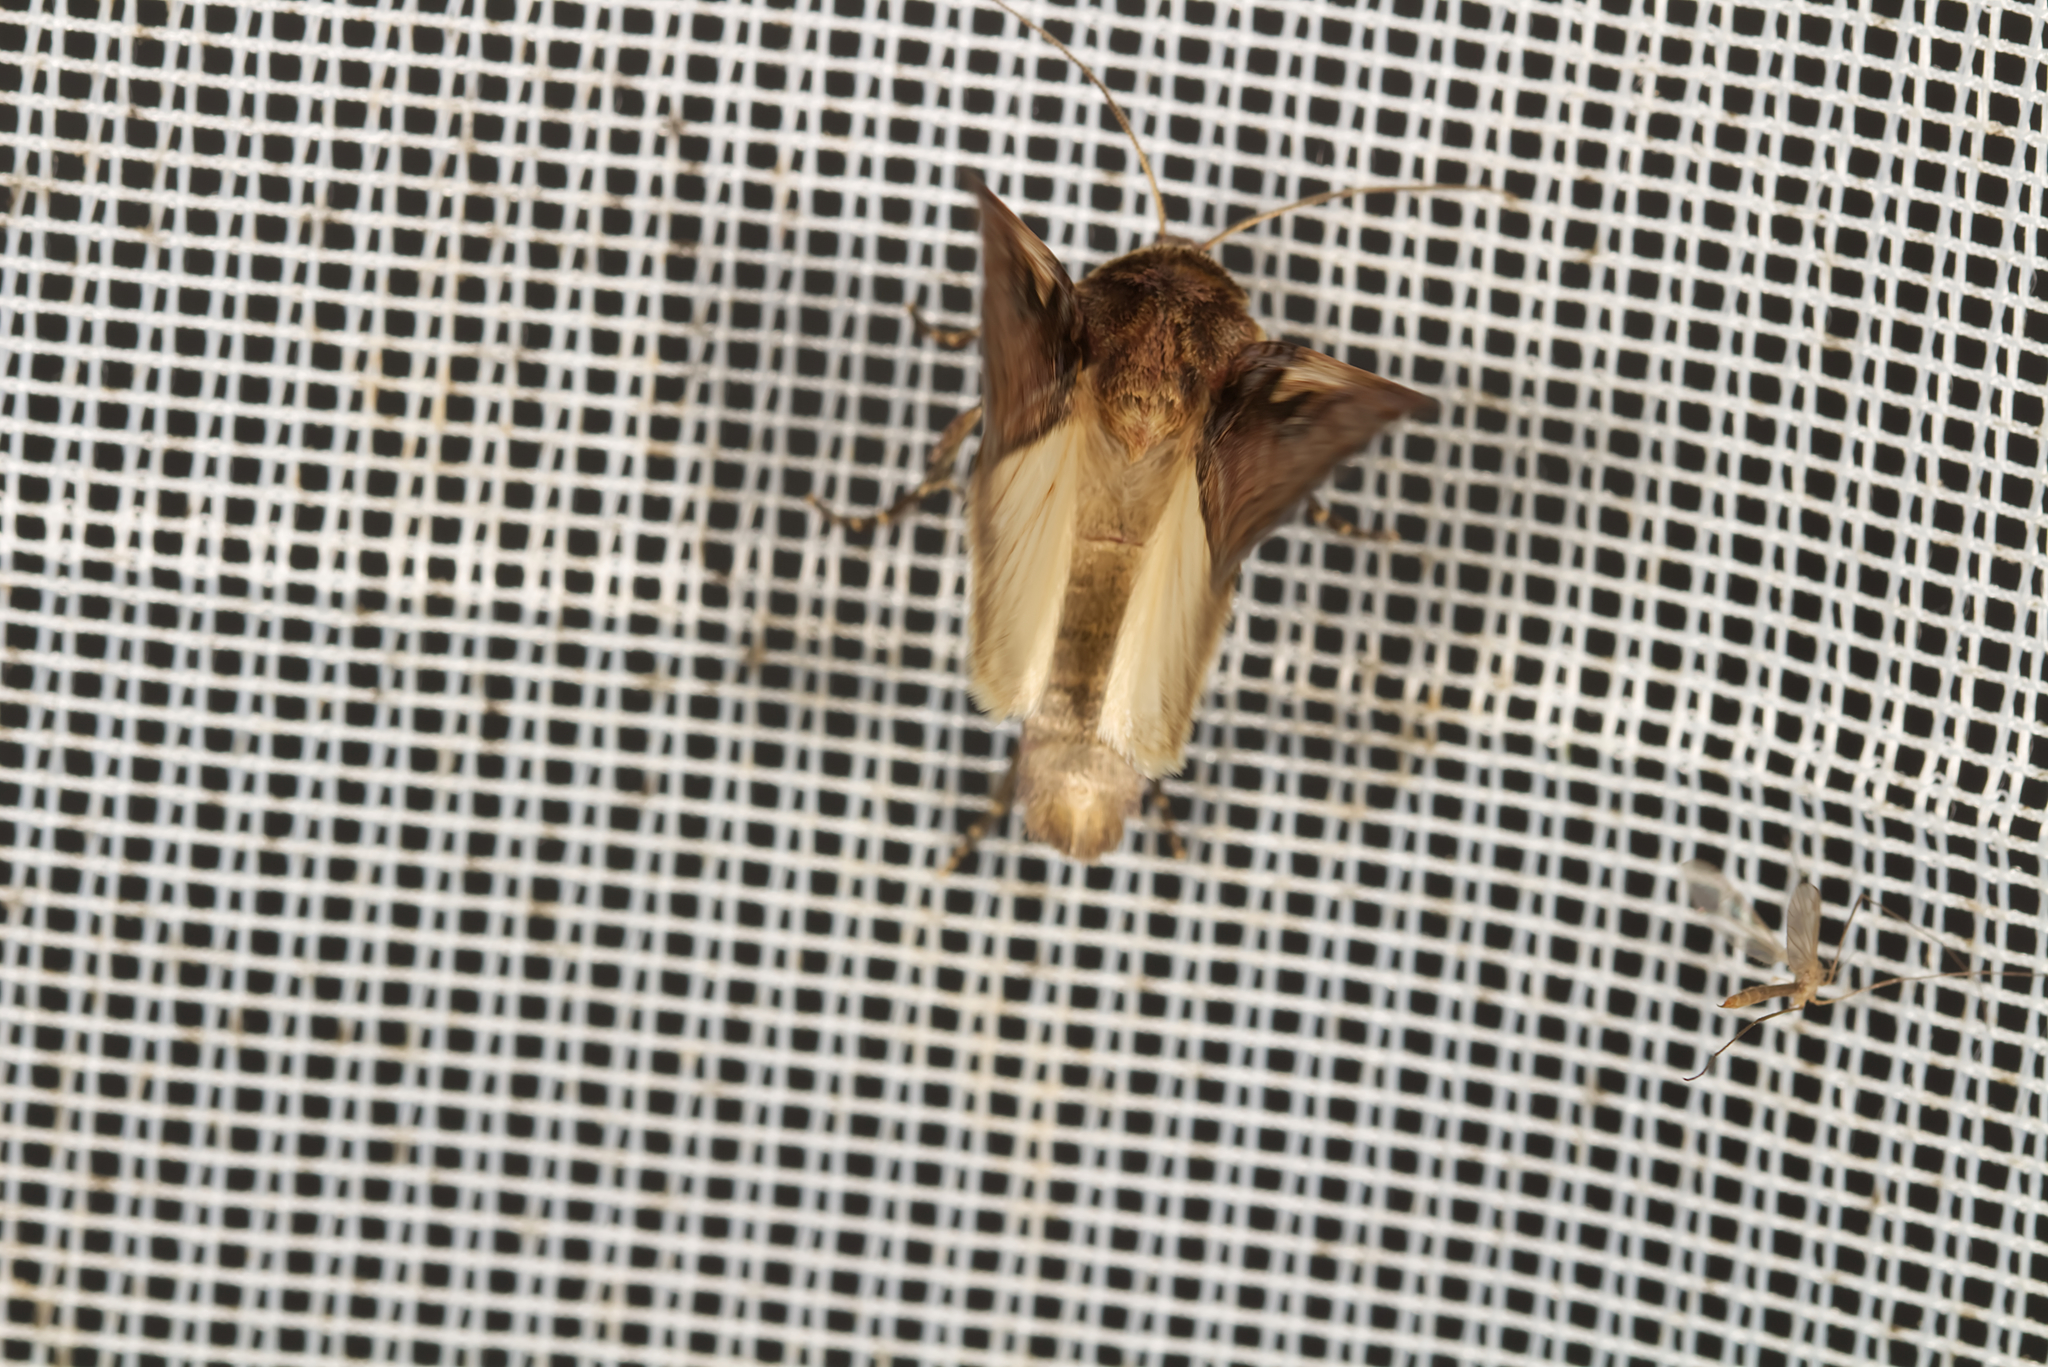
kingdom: Animalia
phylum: Arthropoda
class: Insecta
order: Lepidoptera
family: Noctuidae
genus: Xestia
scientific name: Xestia c-nigrum
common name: Setaceous hebrew character
